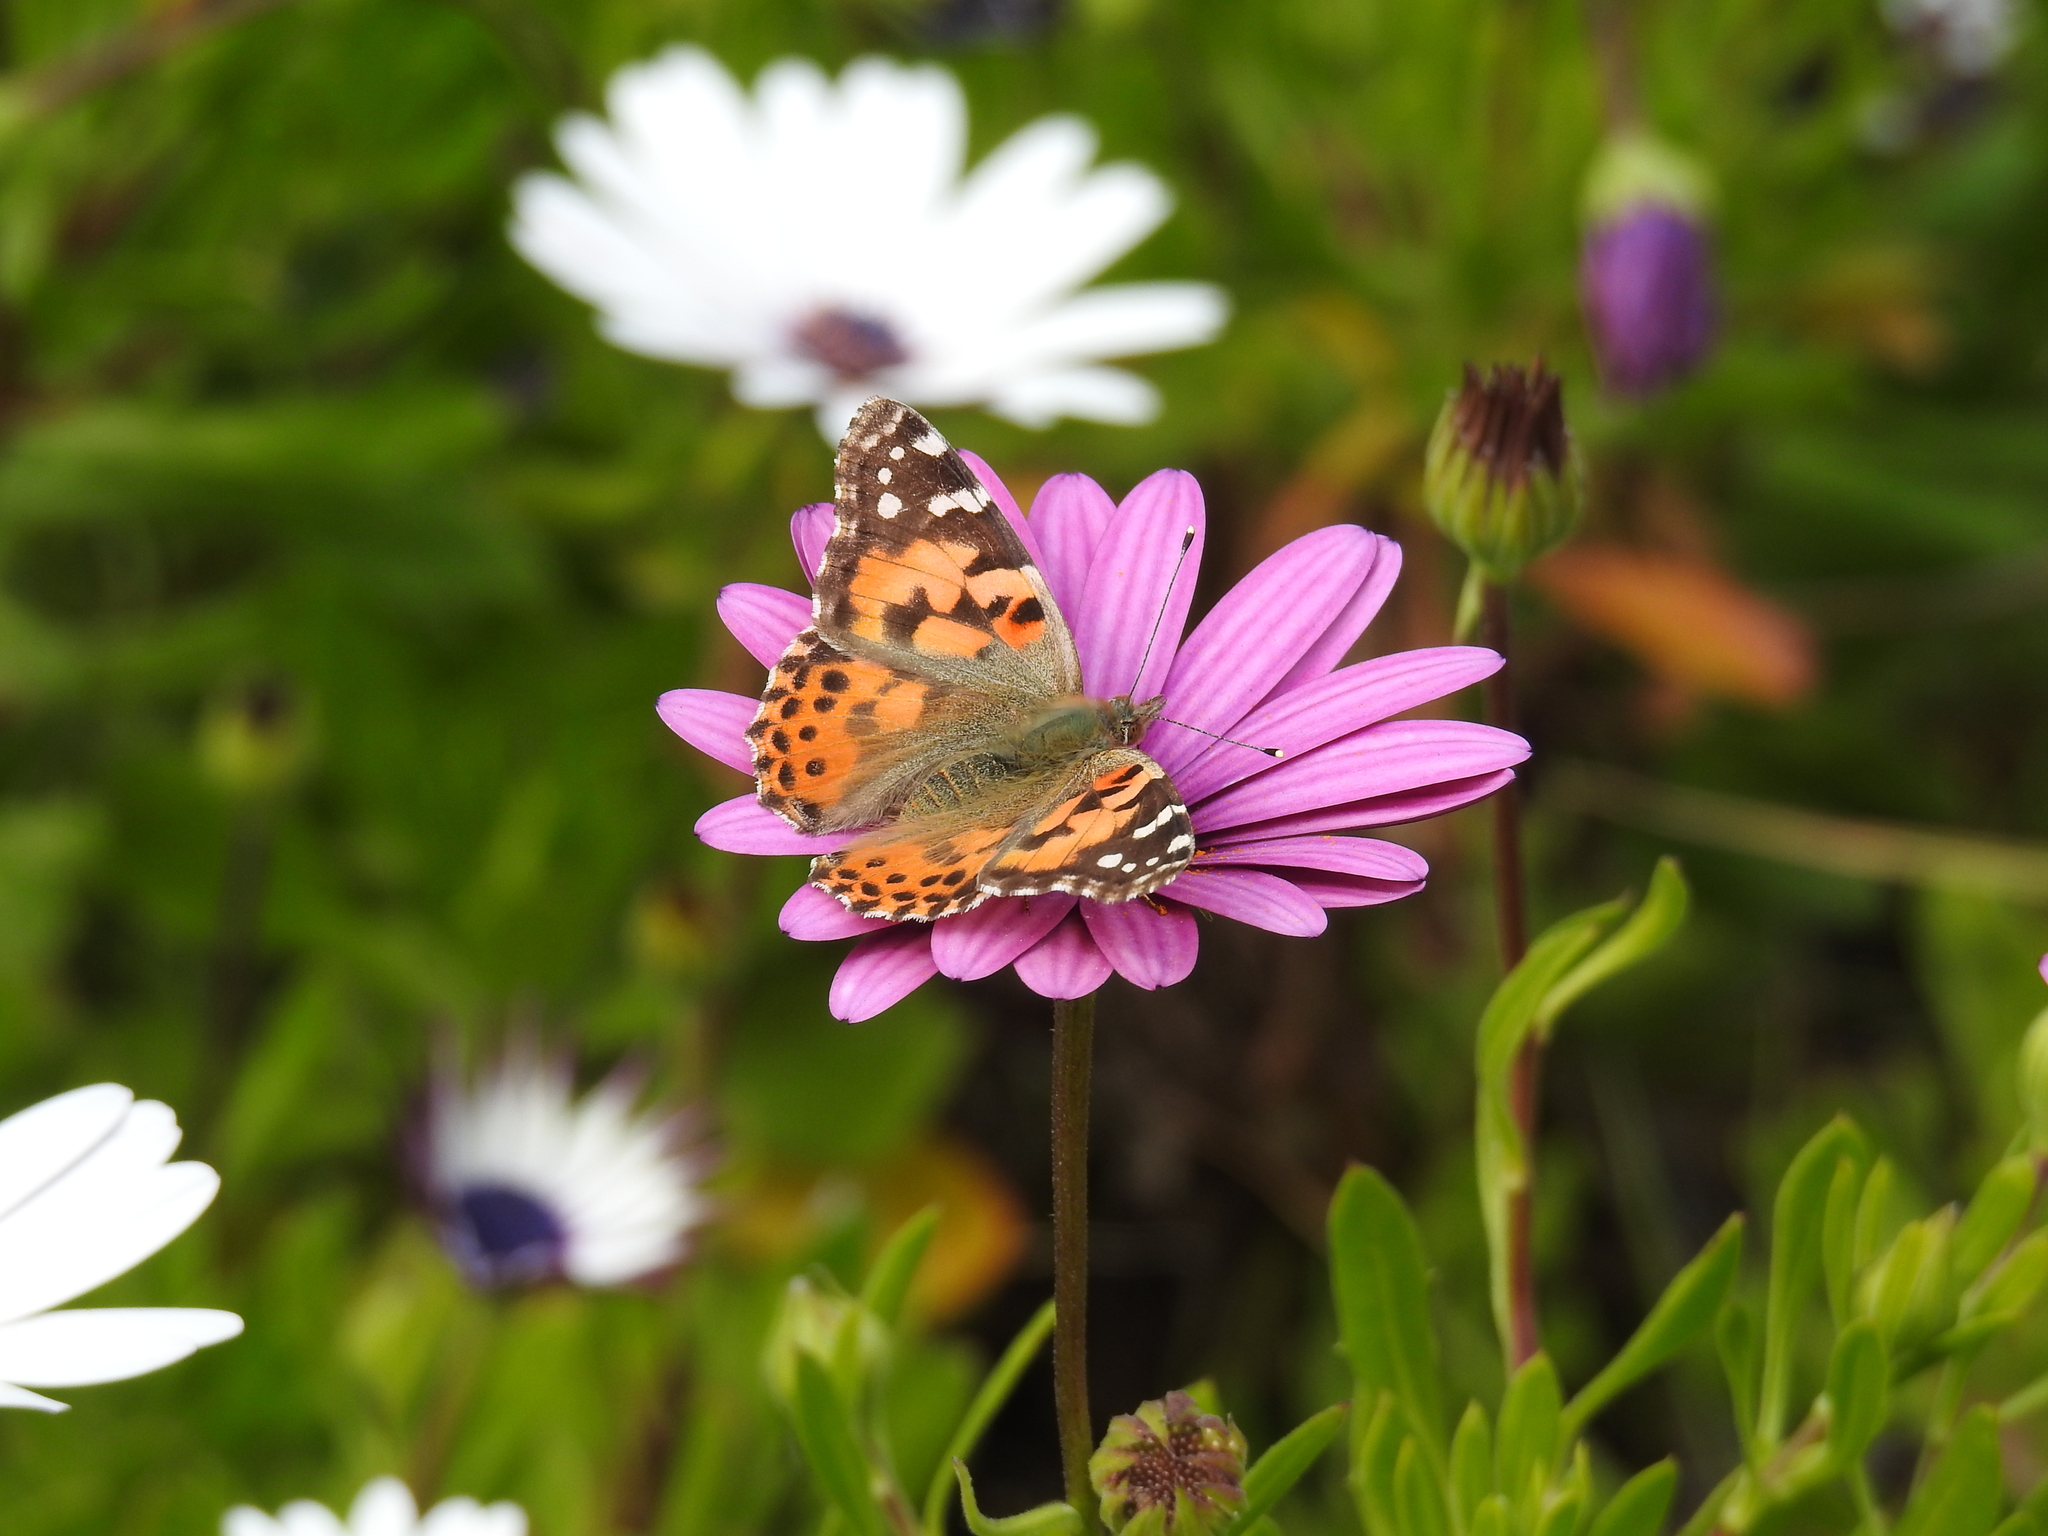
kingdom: Animalia
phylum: Arthropoda
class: Insecta
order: Lepidoptera
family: Nymphalidae
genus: Vanessa
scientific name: Vanessa cardui
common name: Painted lady
